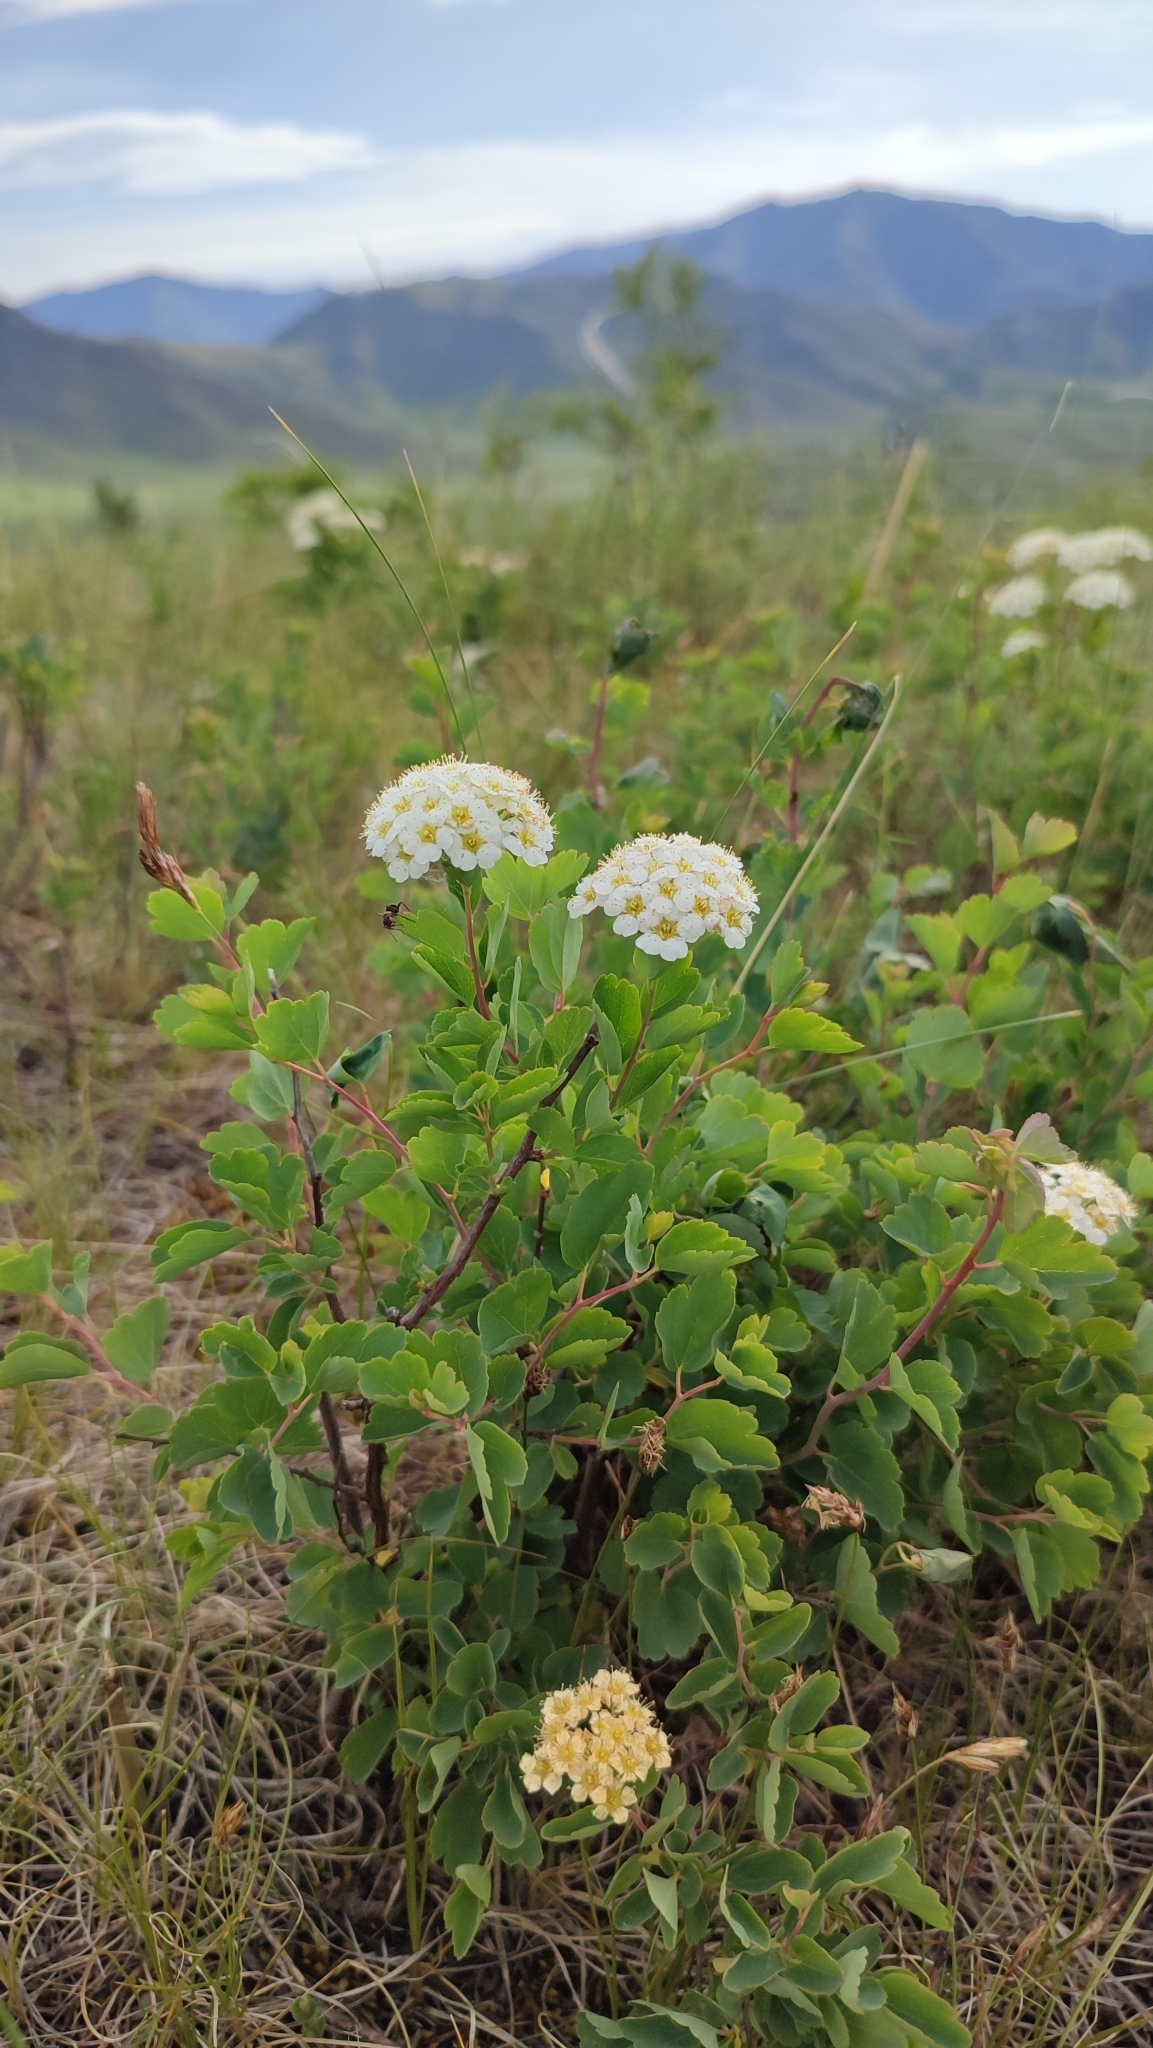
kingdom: Plantae
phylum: Tracheophyta
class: Magnoliopsida
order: Rosales
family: Rosaceae
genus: Spiraea
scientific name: Spiraea trilobata
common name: Asian meadowsweet
